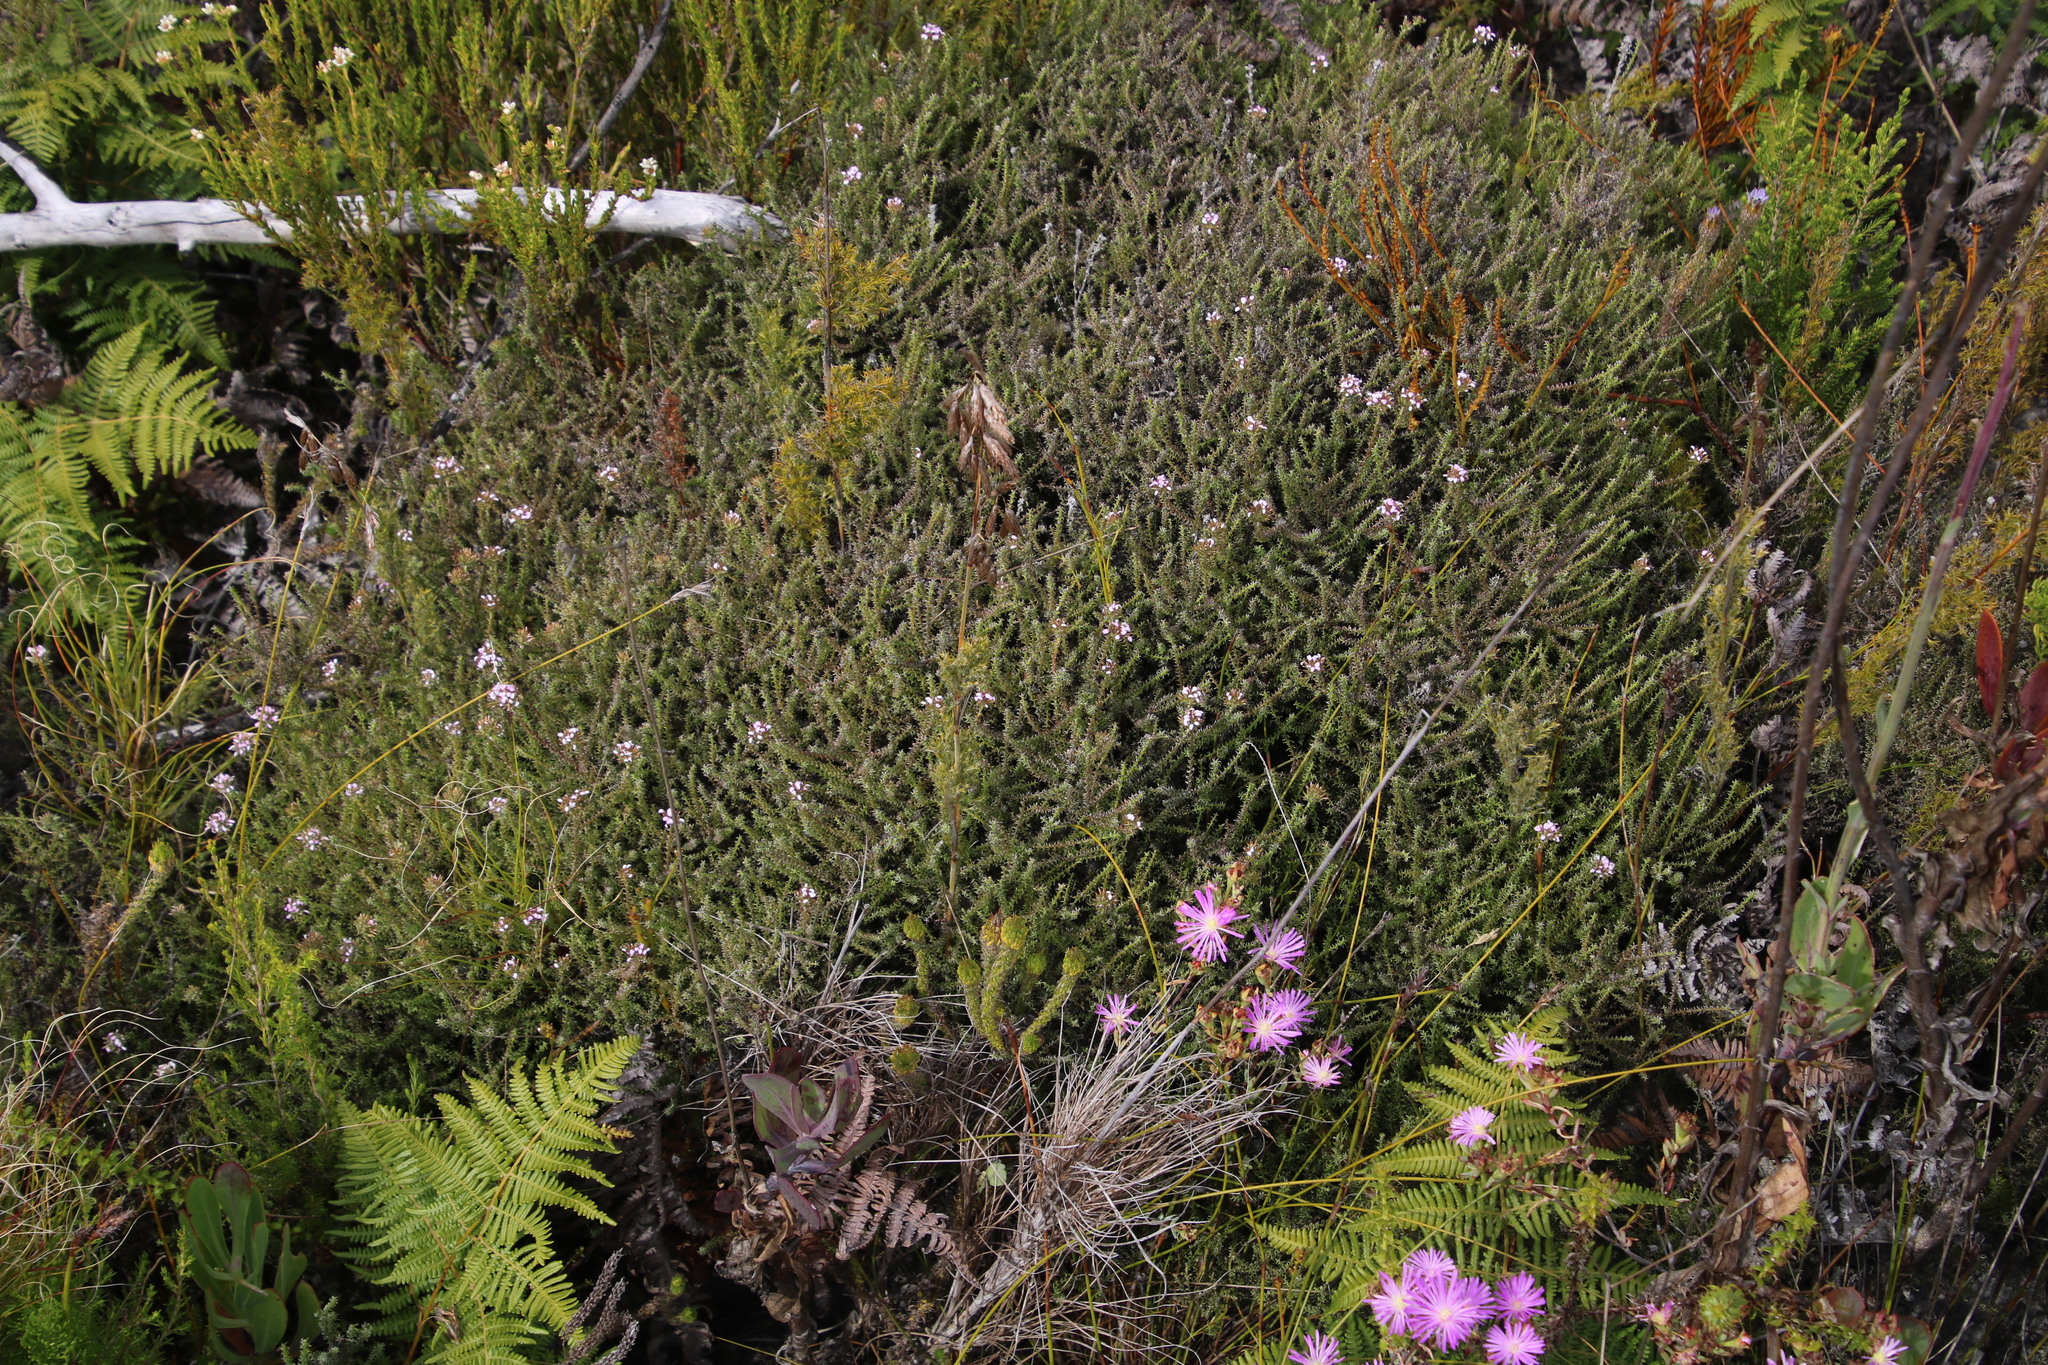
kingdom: Plantae
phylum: Tracheophyta
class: Magnoliopsida
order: Asterales
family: Asteraceae
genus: Disparago
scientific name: Disparago ericoides
